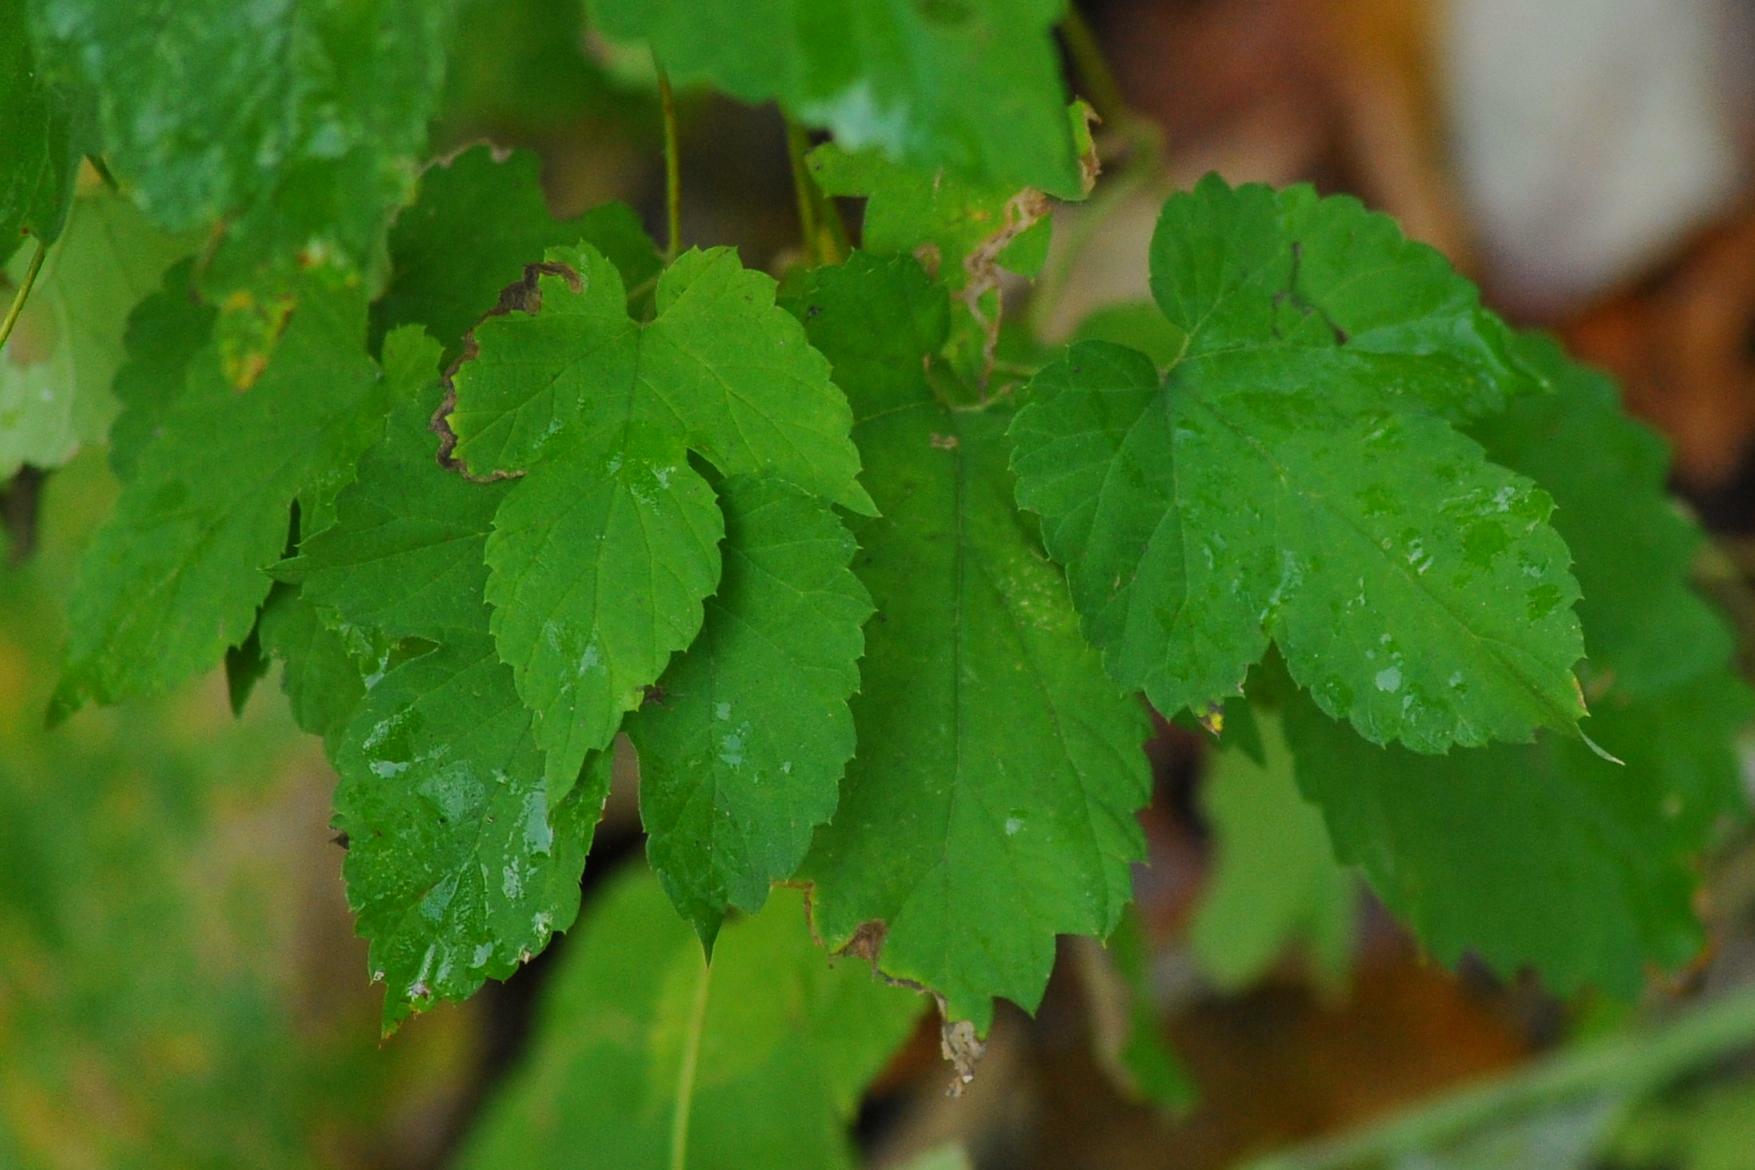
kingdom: Plantae
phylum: Tracheophyta
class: Magnoliopsida
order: Rosales
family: Cannabaceae
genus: Humulus
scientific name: Humulus lupulus
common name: Hop
